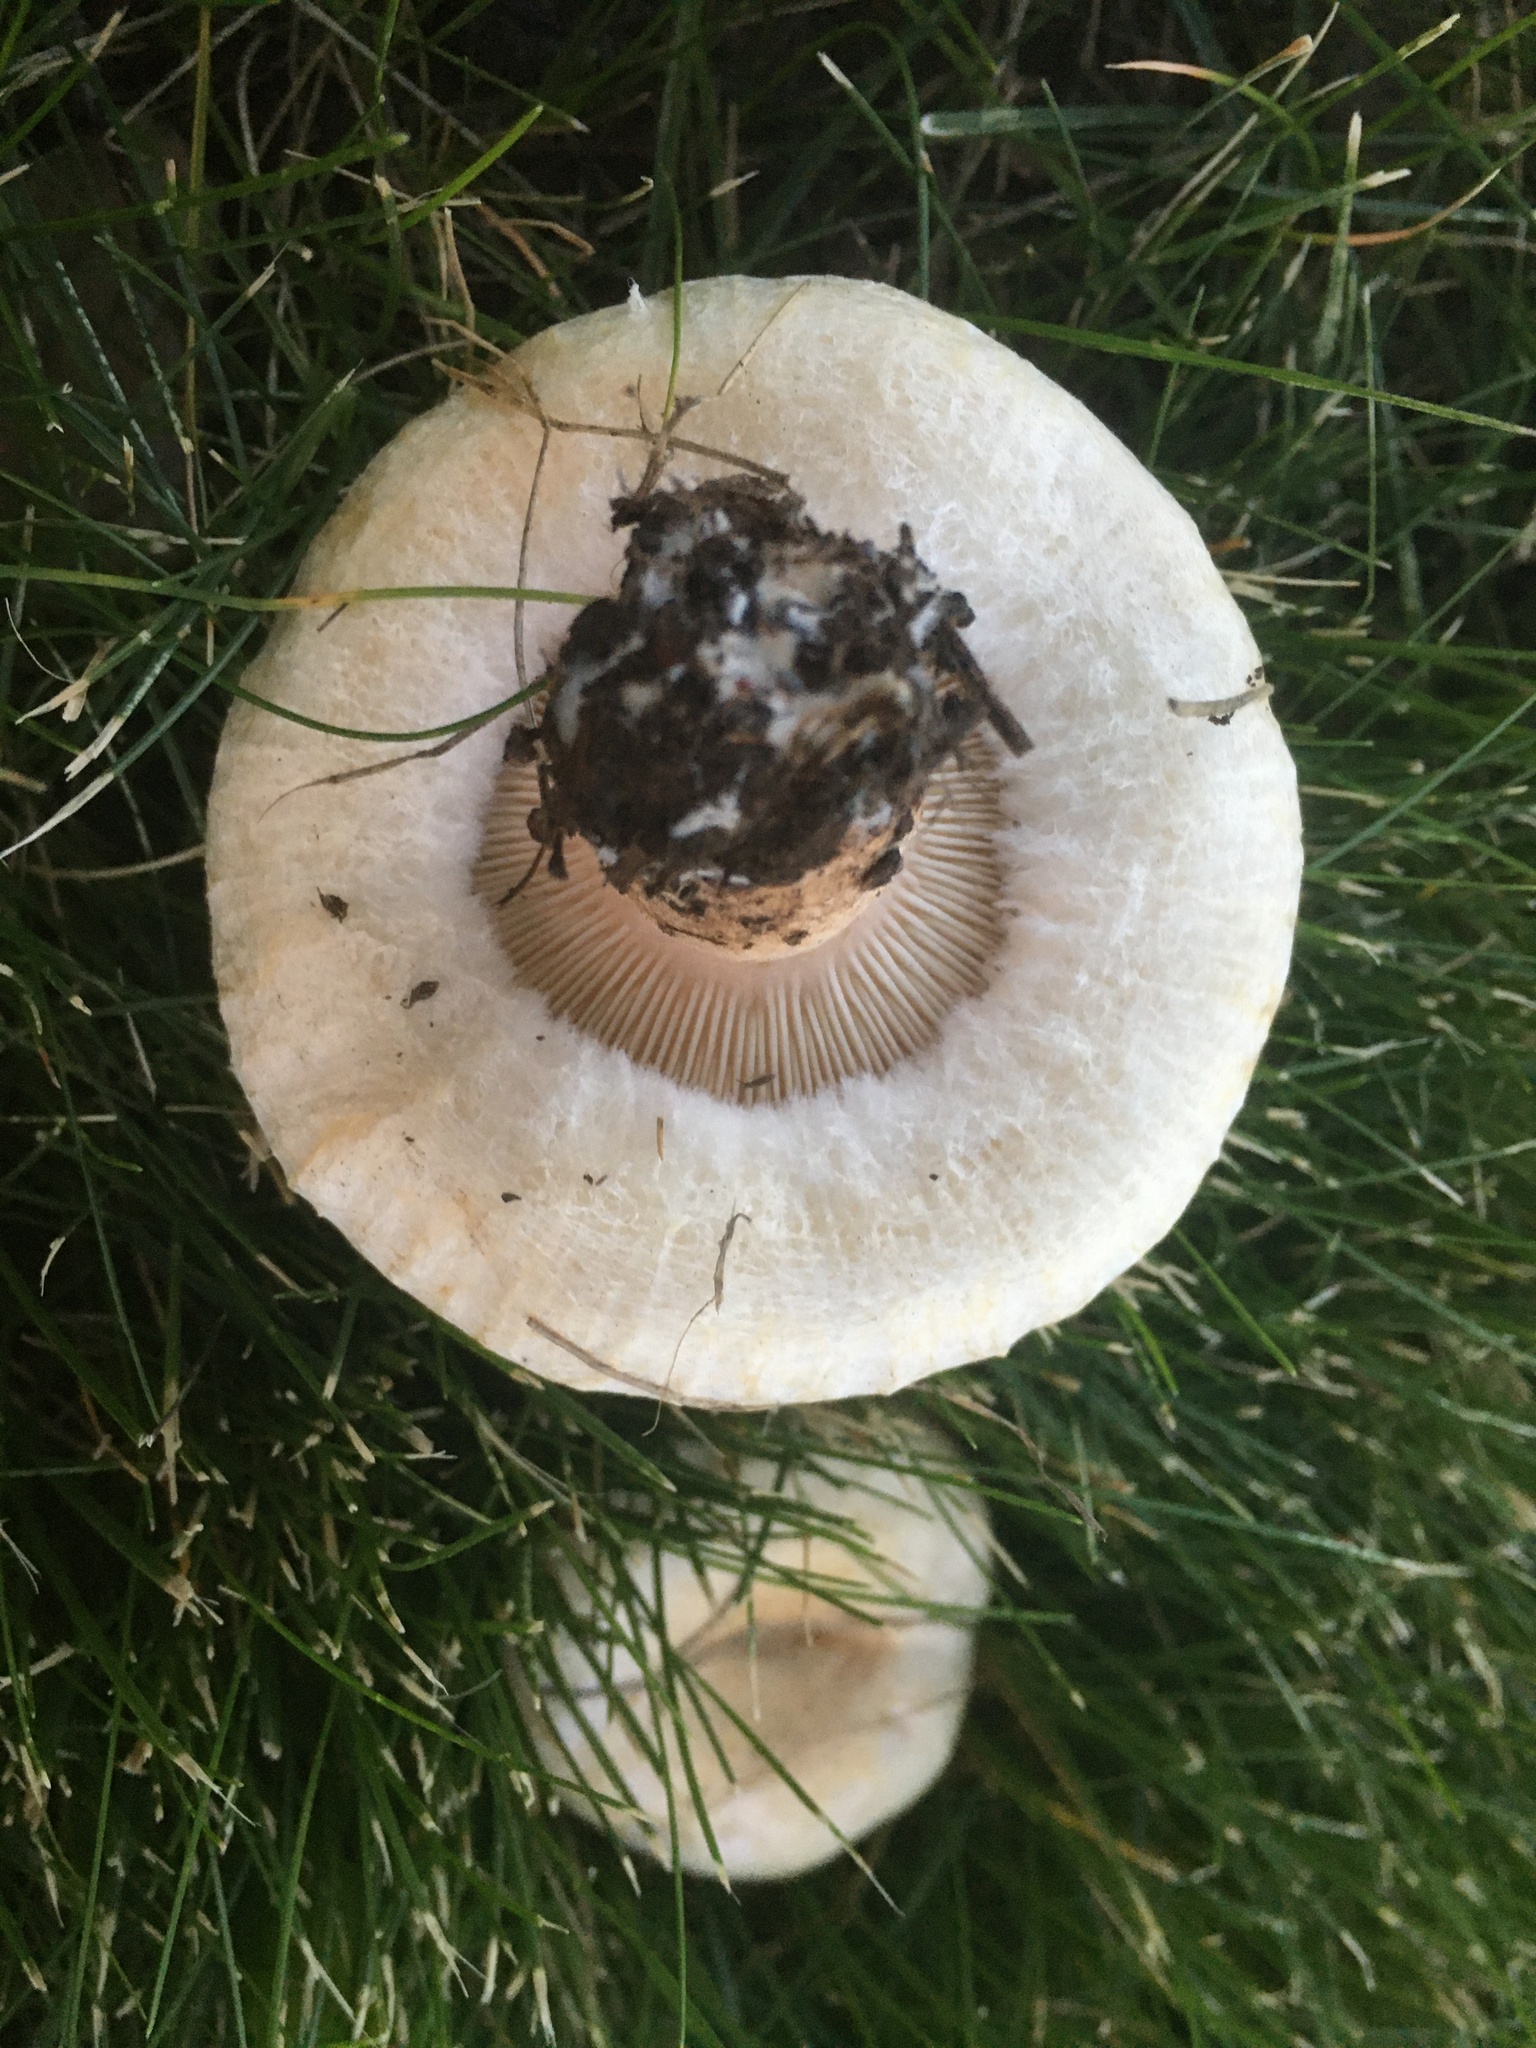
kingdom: Fungi
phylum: Basidiomycota
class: Agaricomycetes
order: Russulales
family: Russulaceae
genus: Lactarius
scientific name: Lactarius pubescens
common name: Bearded milkcap
